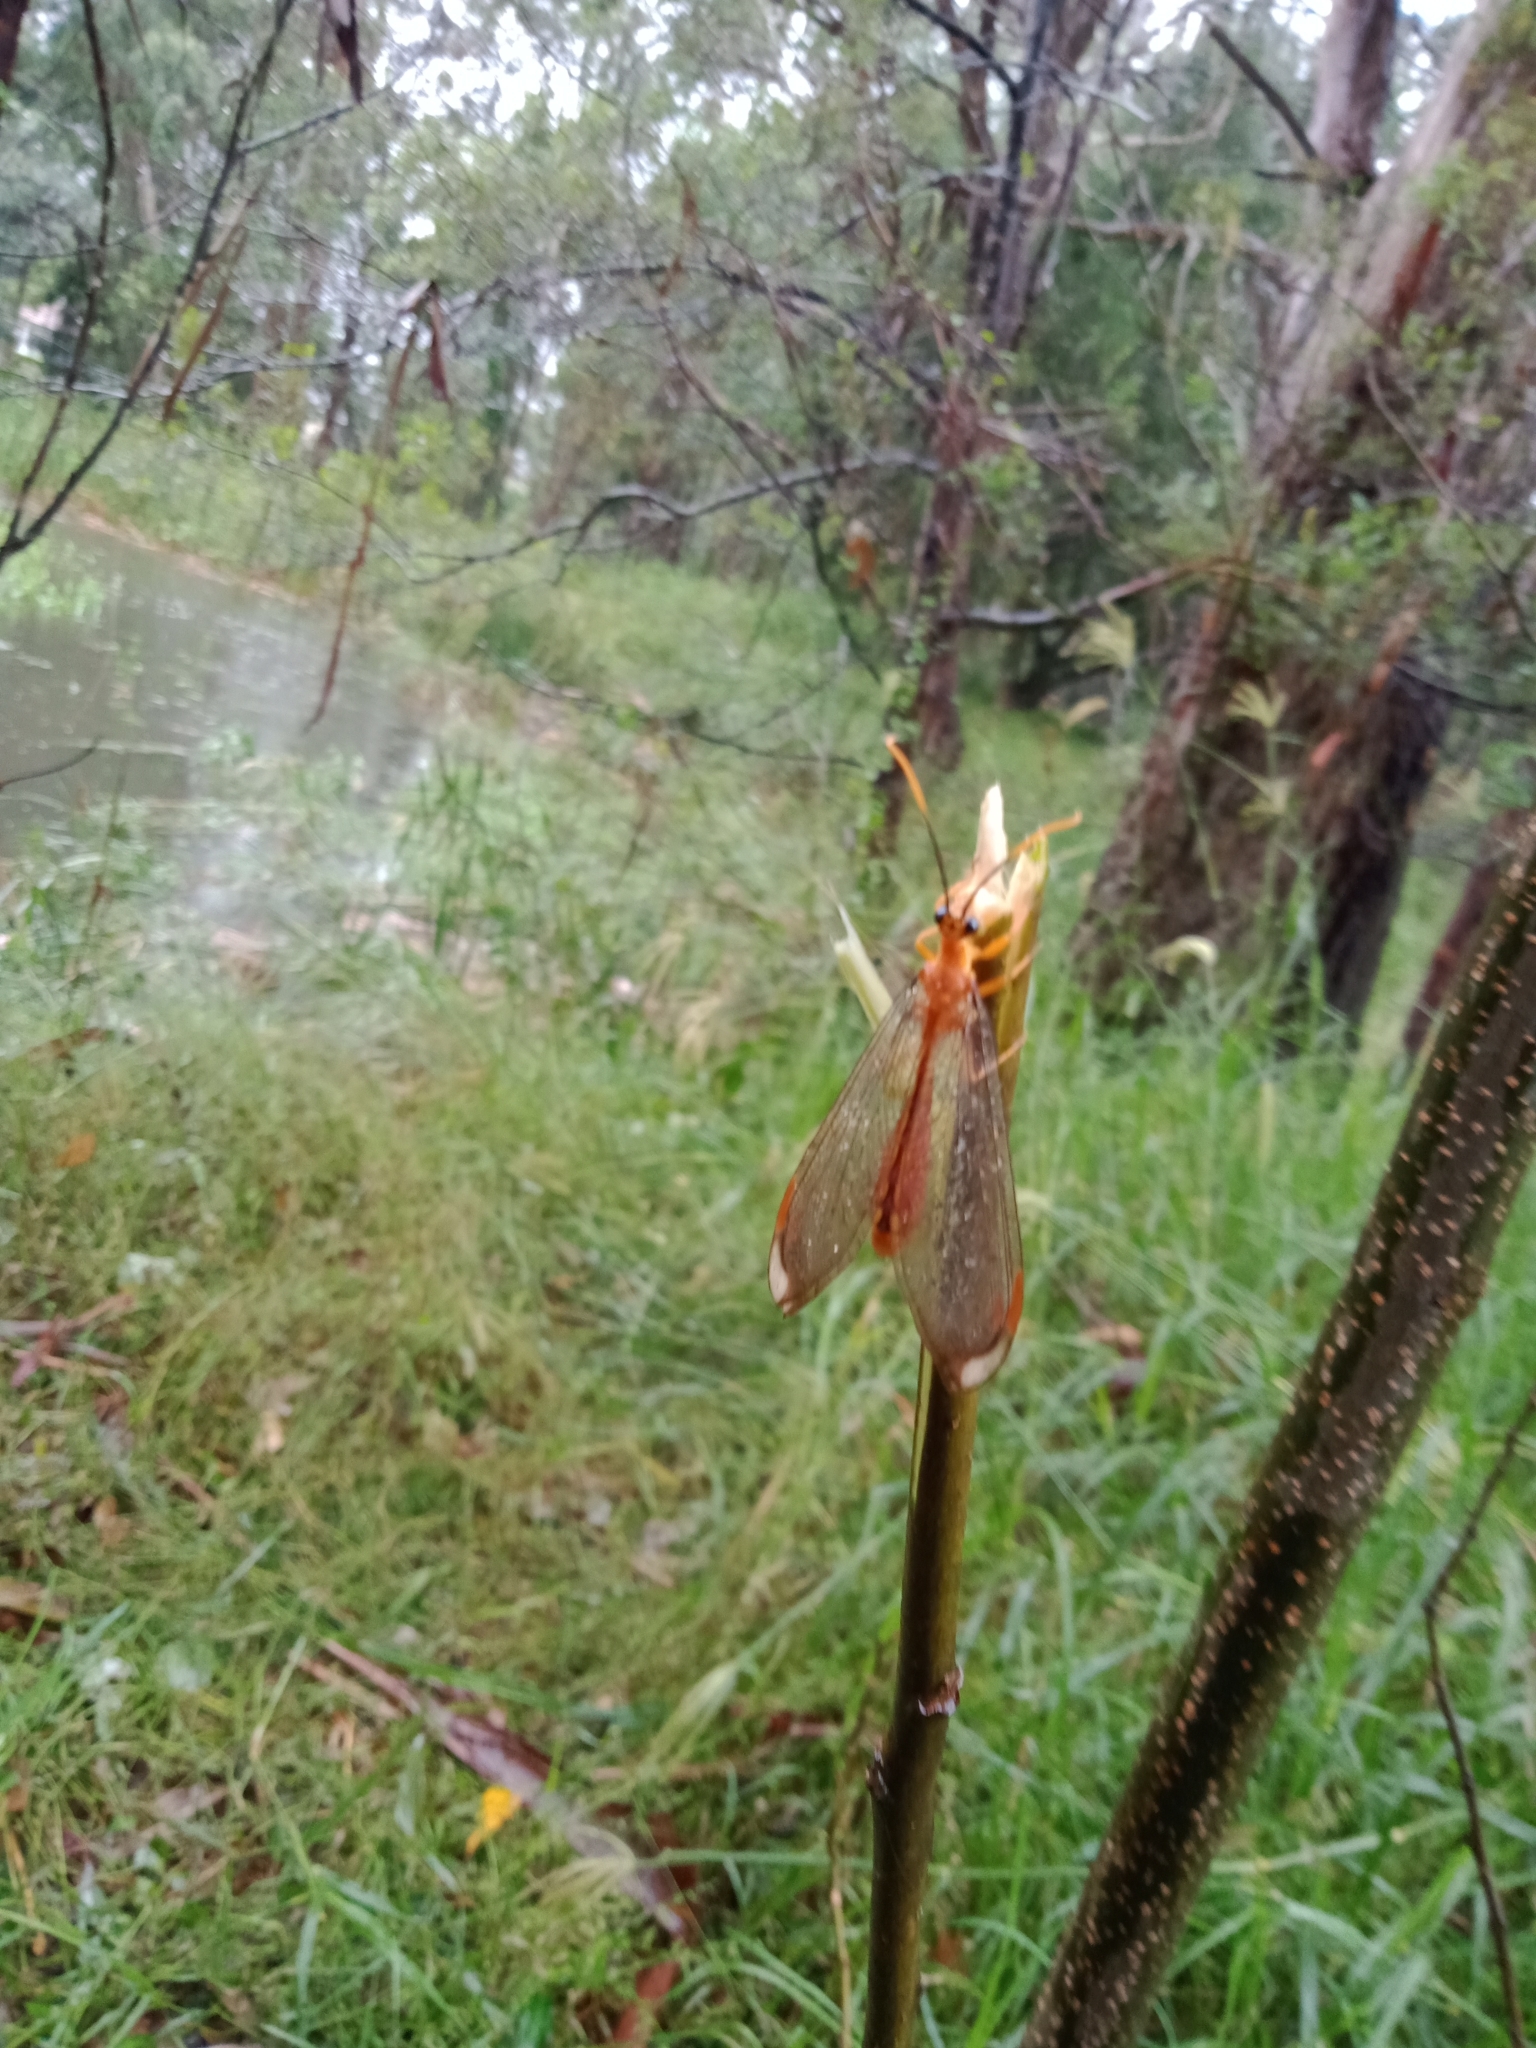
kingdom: Animalia
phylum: Arthropoda
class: Insecta
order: Neuroptera
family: Nymphidae
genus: Nymphes
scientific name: Nymphes myrmeleonoides
